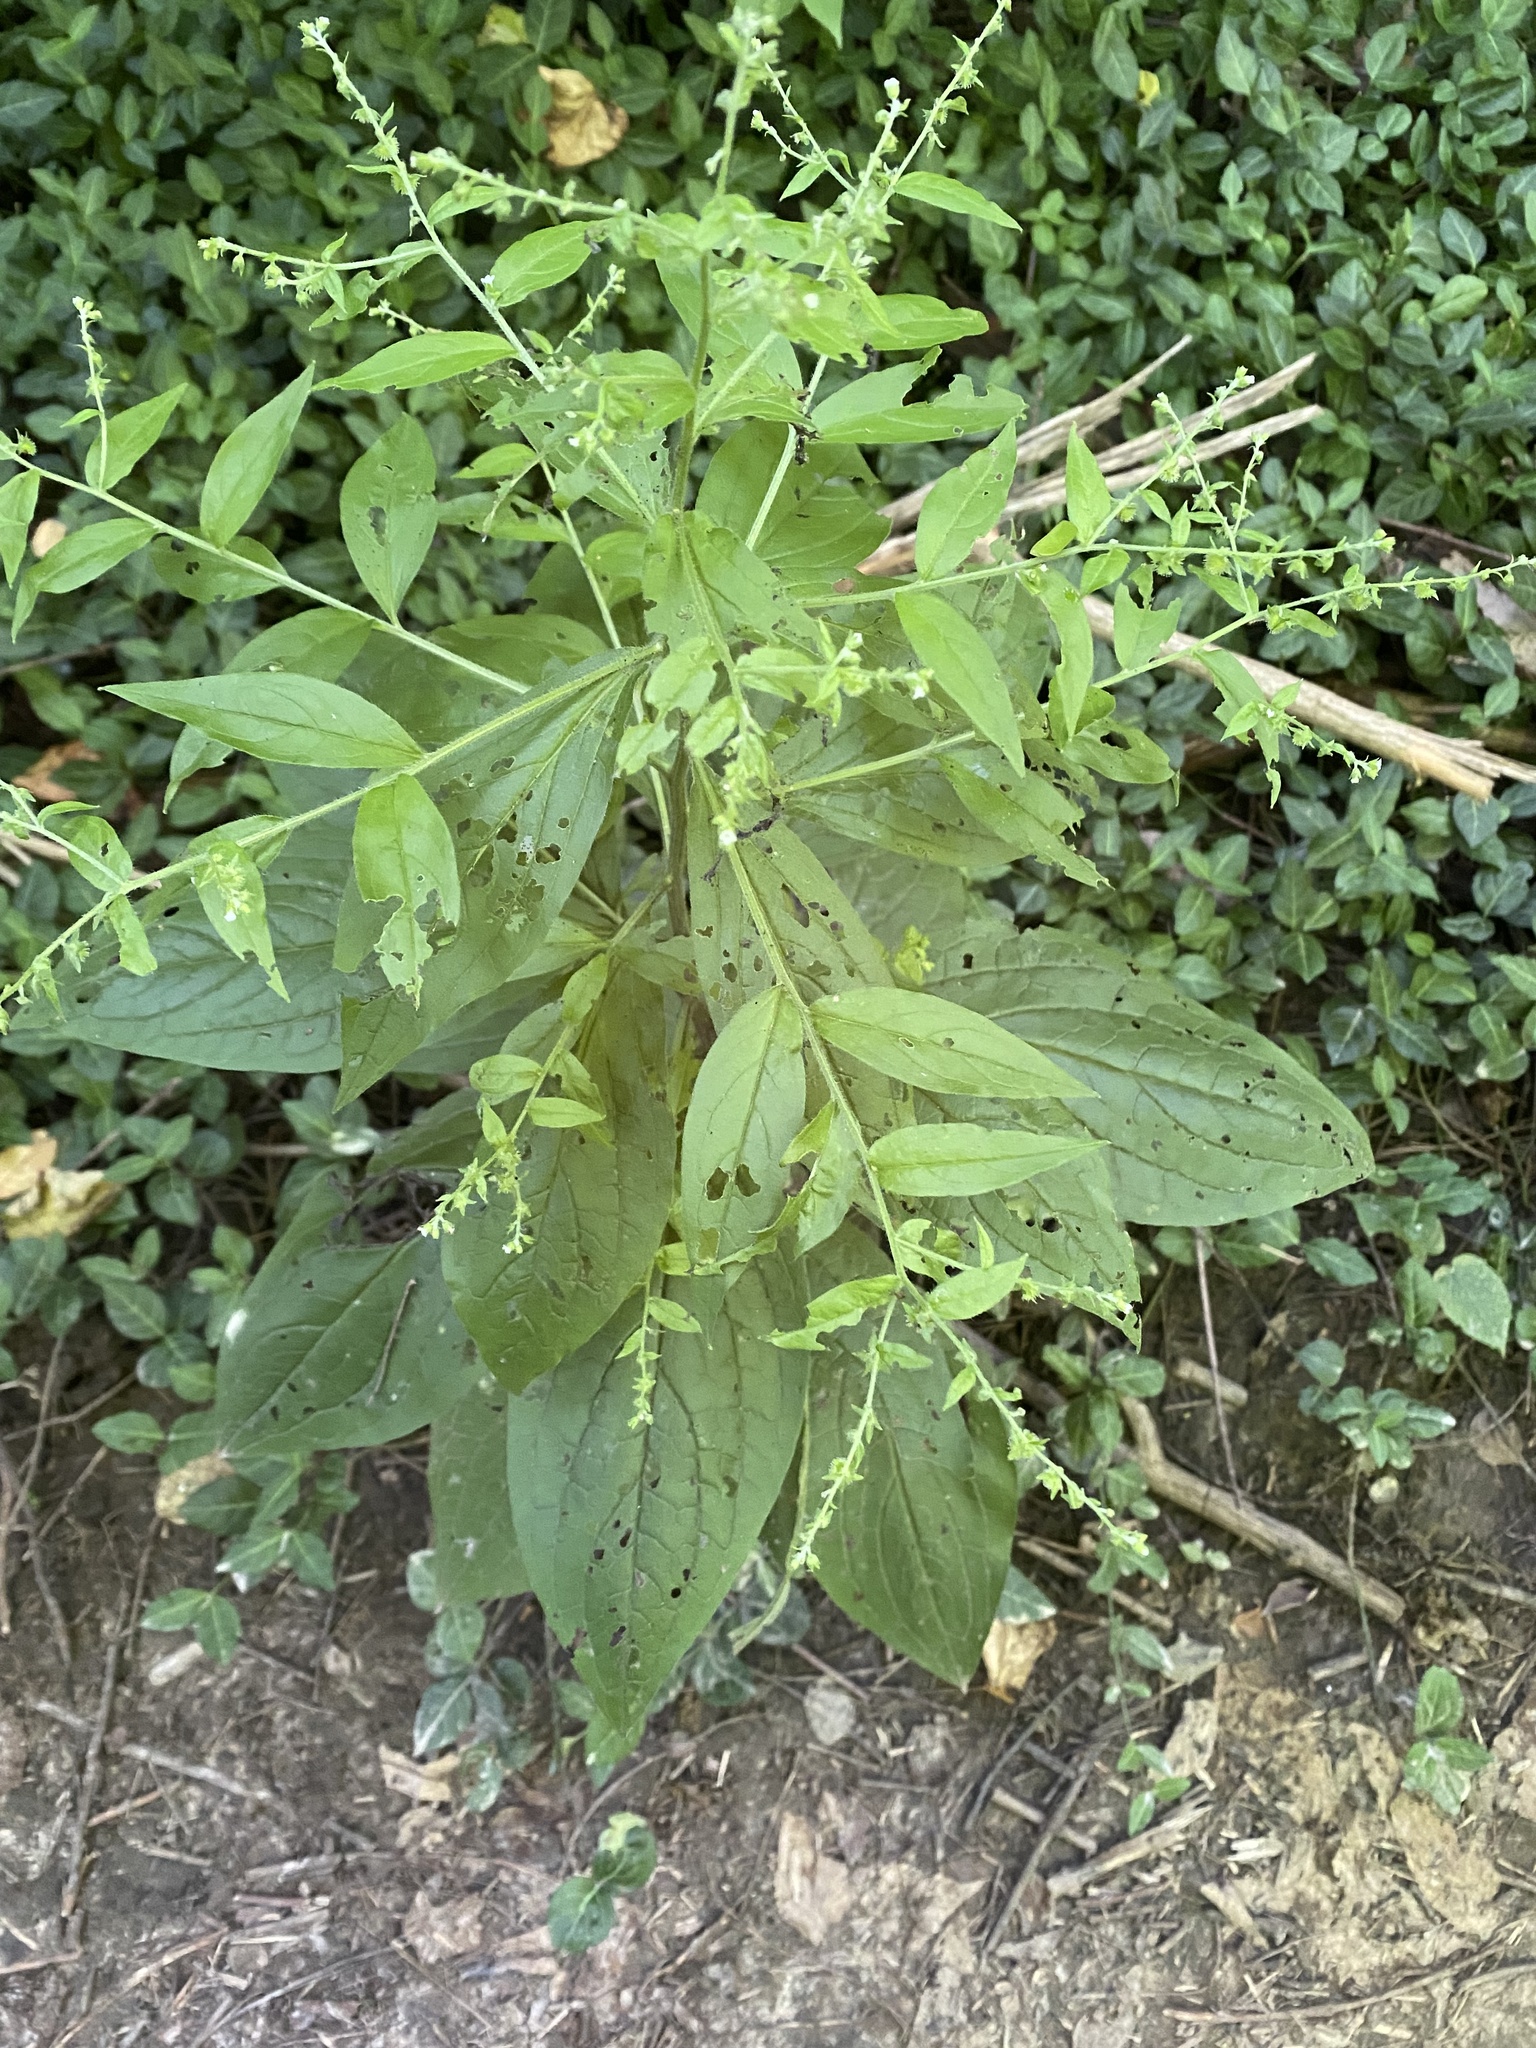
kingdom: Plantae
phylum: Tracheophyta
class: Magnoliopsida
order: Boraginales
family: Boraginaceae
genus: Hackelia
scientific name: Hackelia virginiana
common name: Beggar's-lice
